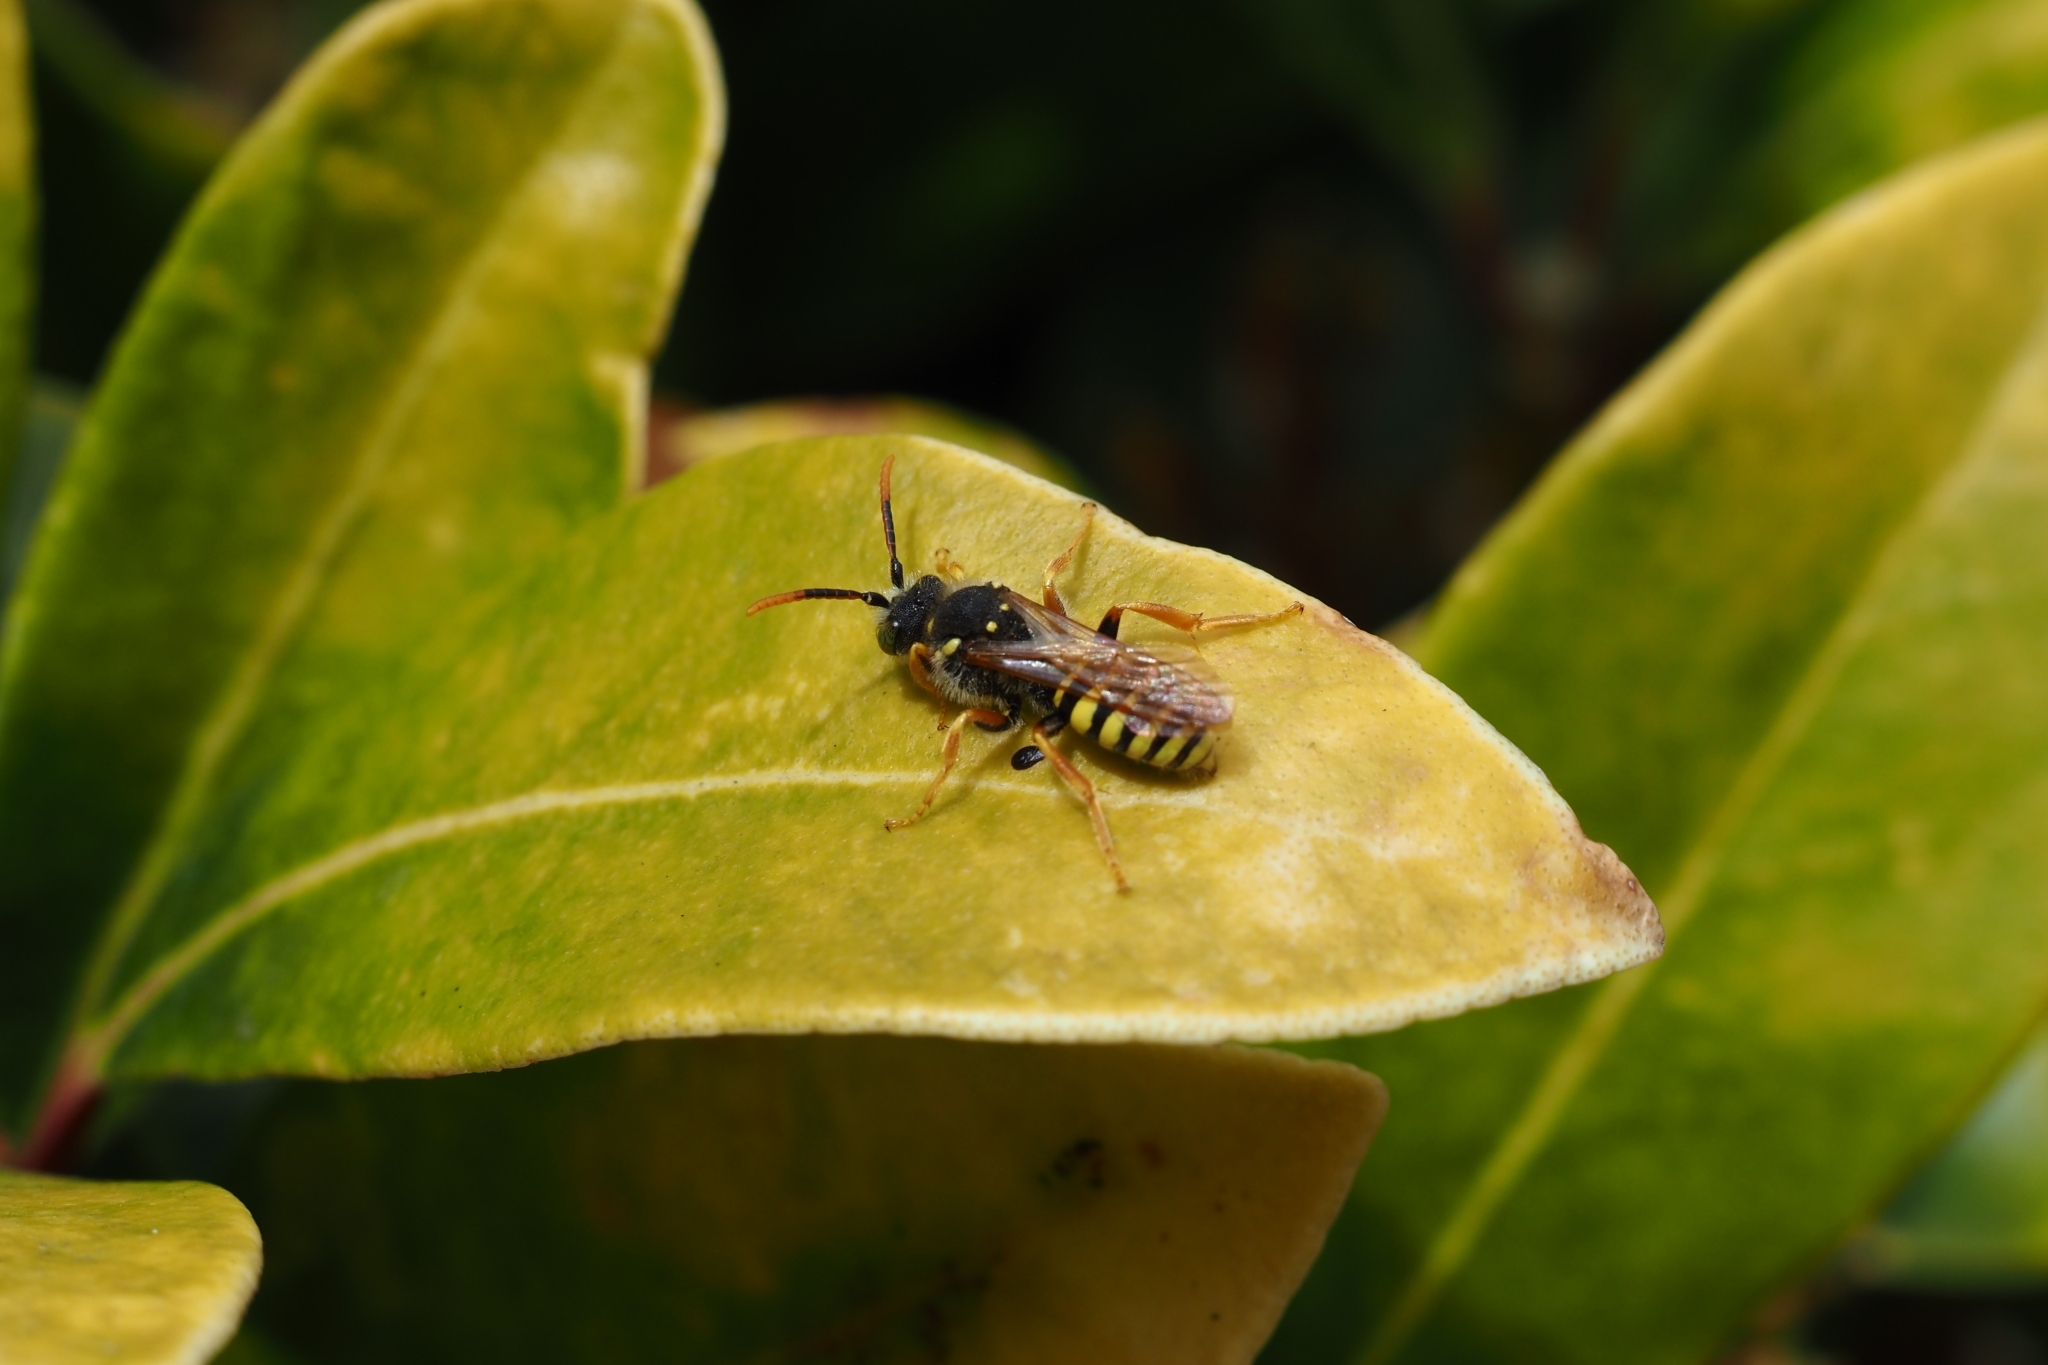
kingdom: Animalia
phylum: Arthropoda
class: Insecta
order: Hymenoptera
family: Apidae
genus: Nomada
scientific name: Nomada goodeniana
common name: Gooden's nomad bee
